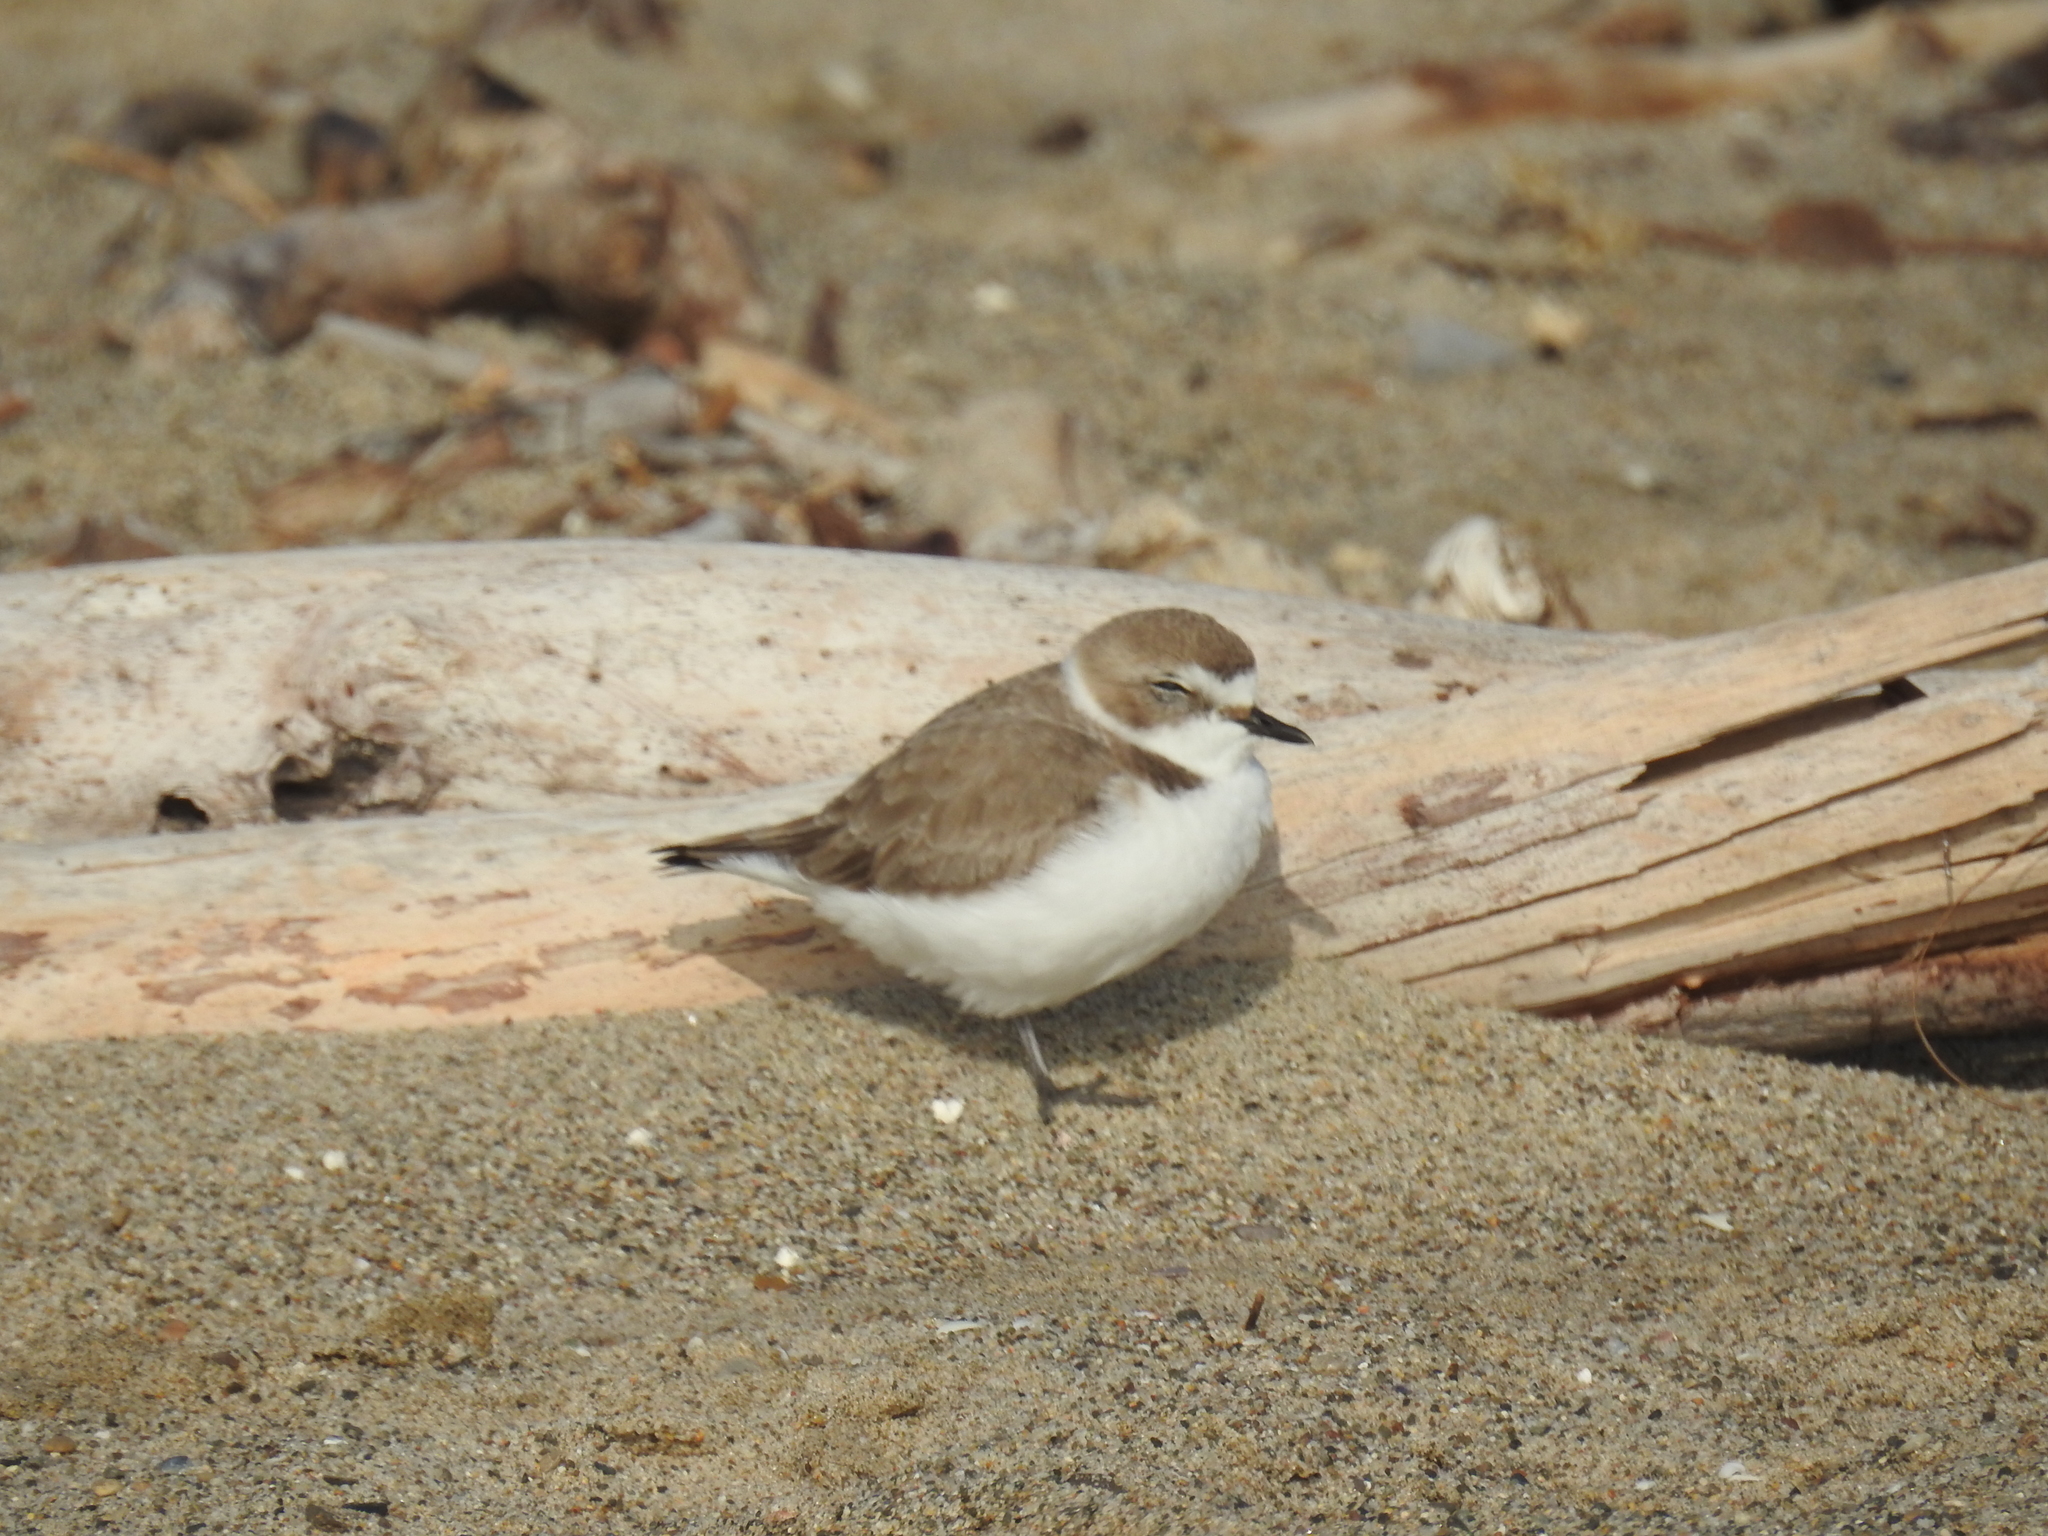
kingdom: Animalia
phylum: Chordata
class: Aves
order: Charadriiformes
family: Charadriidae
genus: Anarhynchus
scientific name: Anarhynchus
